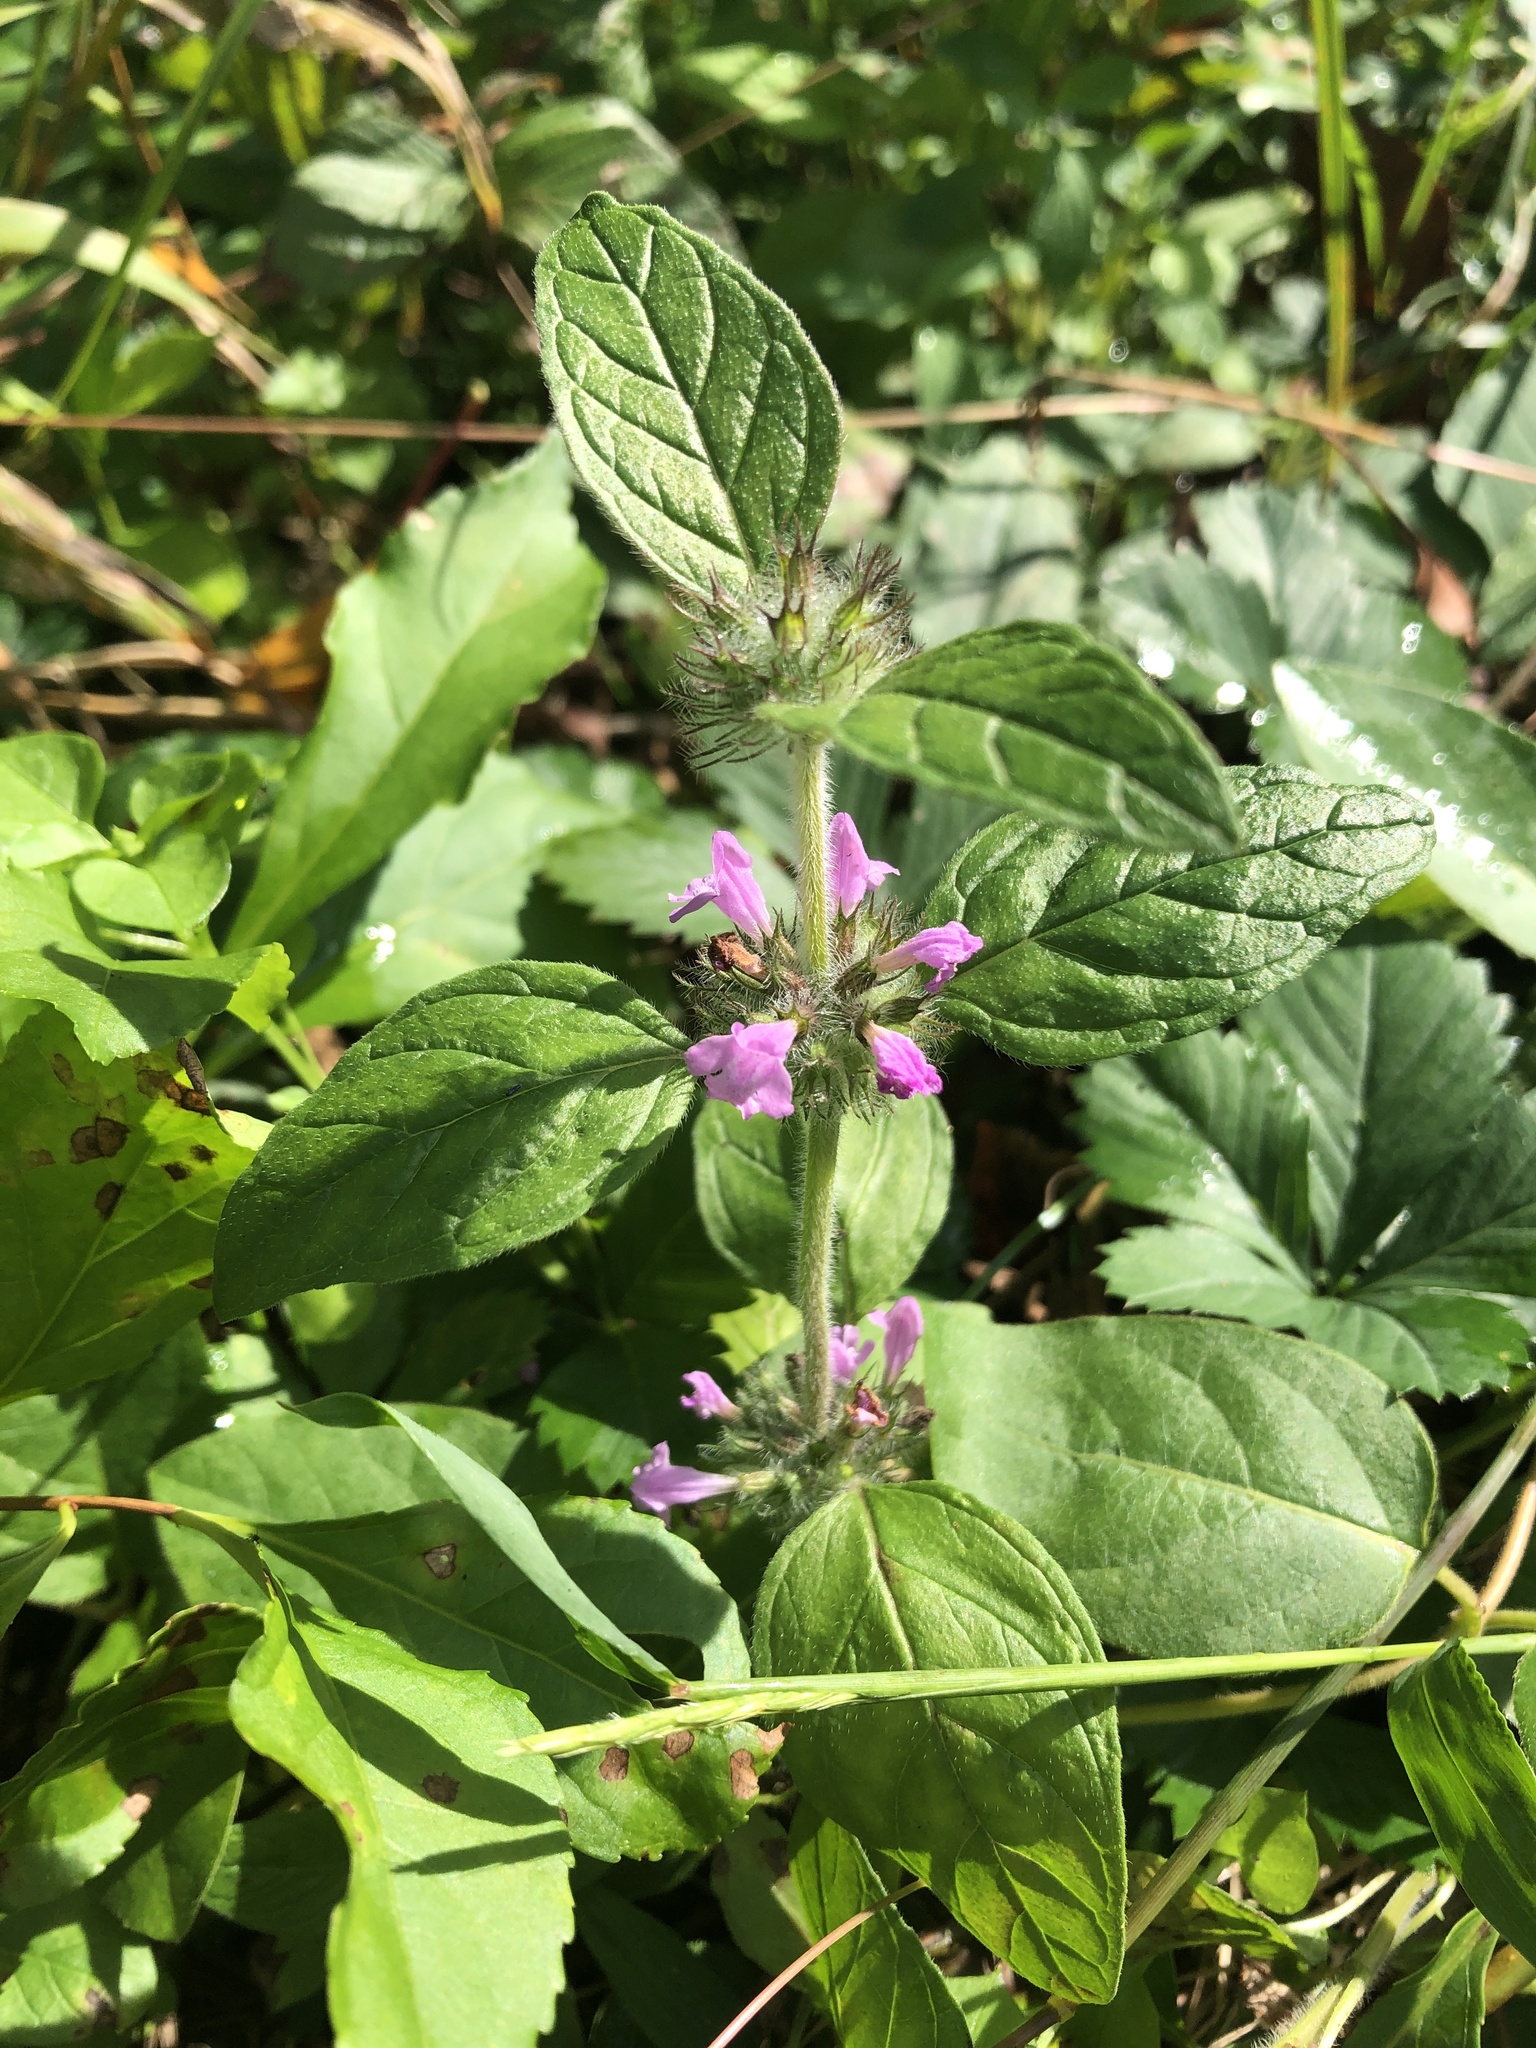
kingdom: Plantae
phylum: Tracheophyta
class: Magnoliopsida
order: Lamiales
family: Lamiaceae
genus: Clinopodium
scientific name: Clinopodium vulgare
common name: Wild basil
